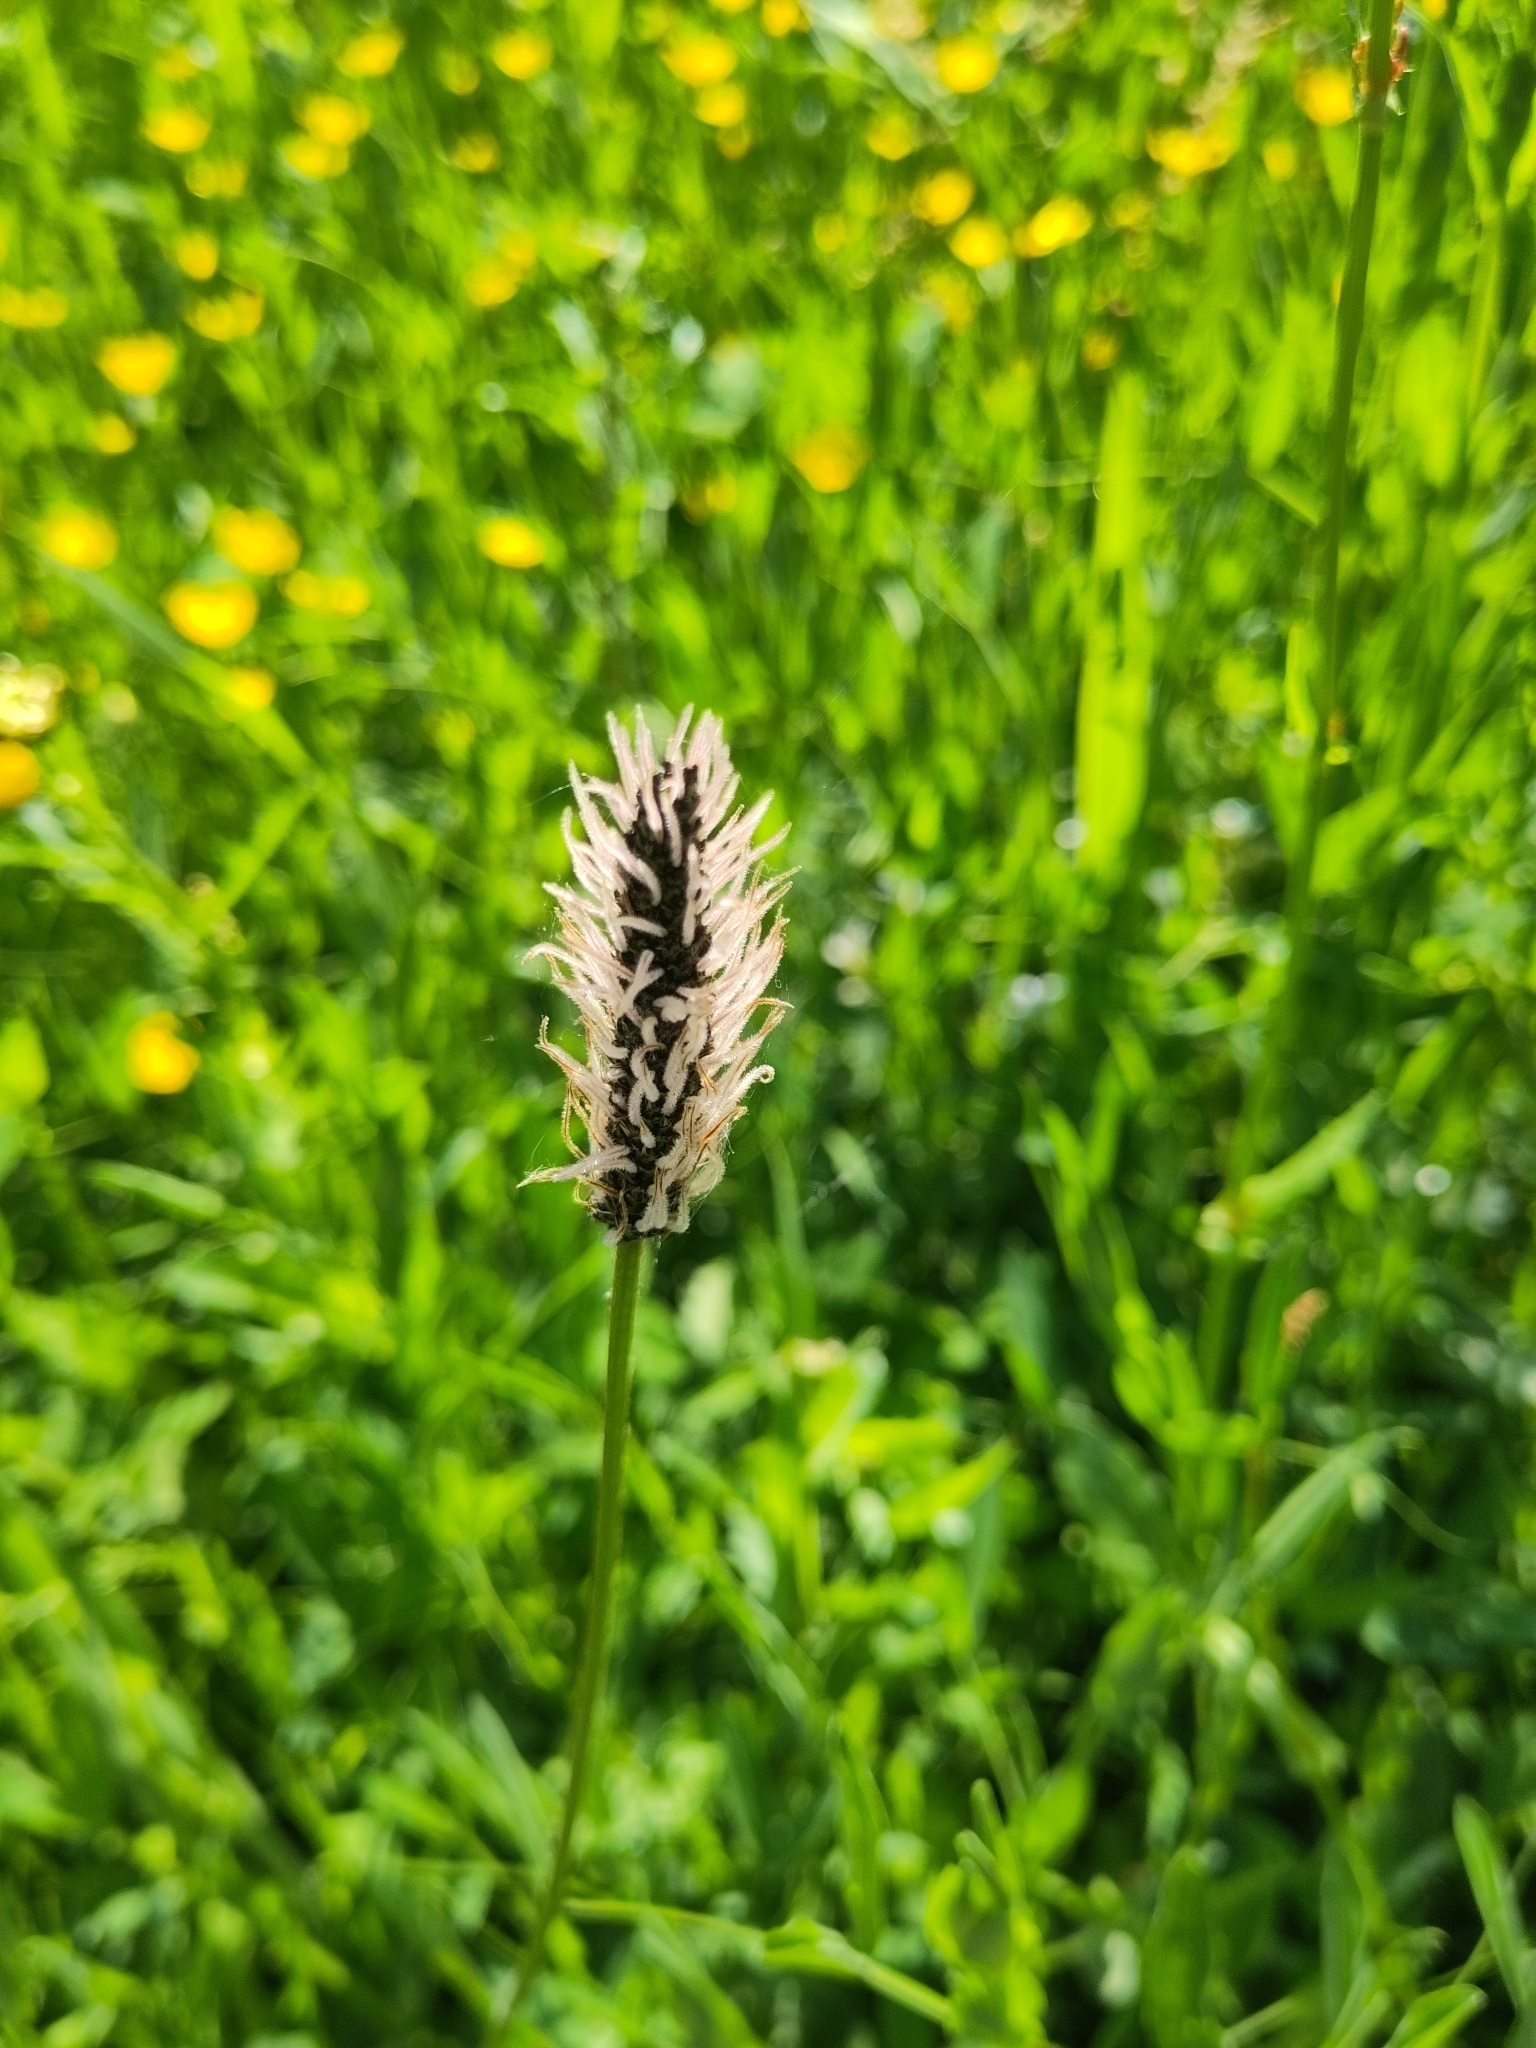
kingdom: Plantae
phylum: Tracheophyta
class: Magnoliopsida
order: Lamiales
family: Plantaginaceae
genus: Plantago
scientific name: Plantago lanceolata
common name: Ribwort plantain
